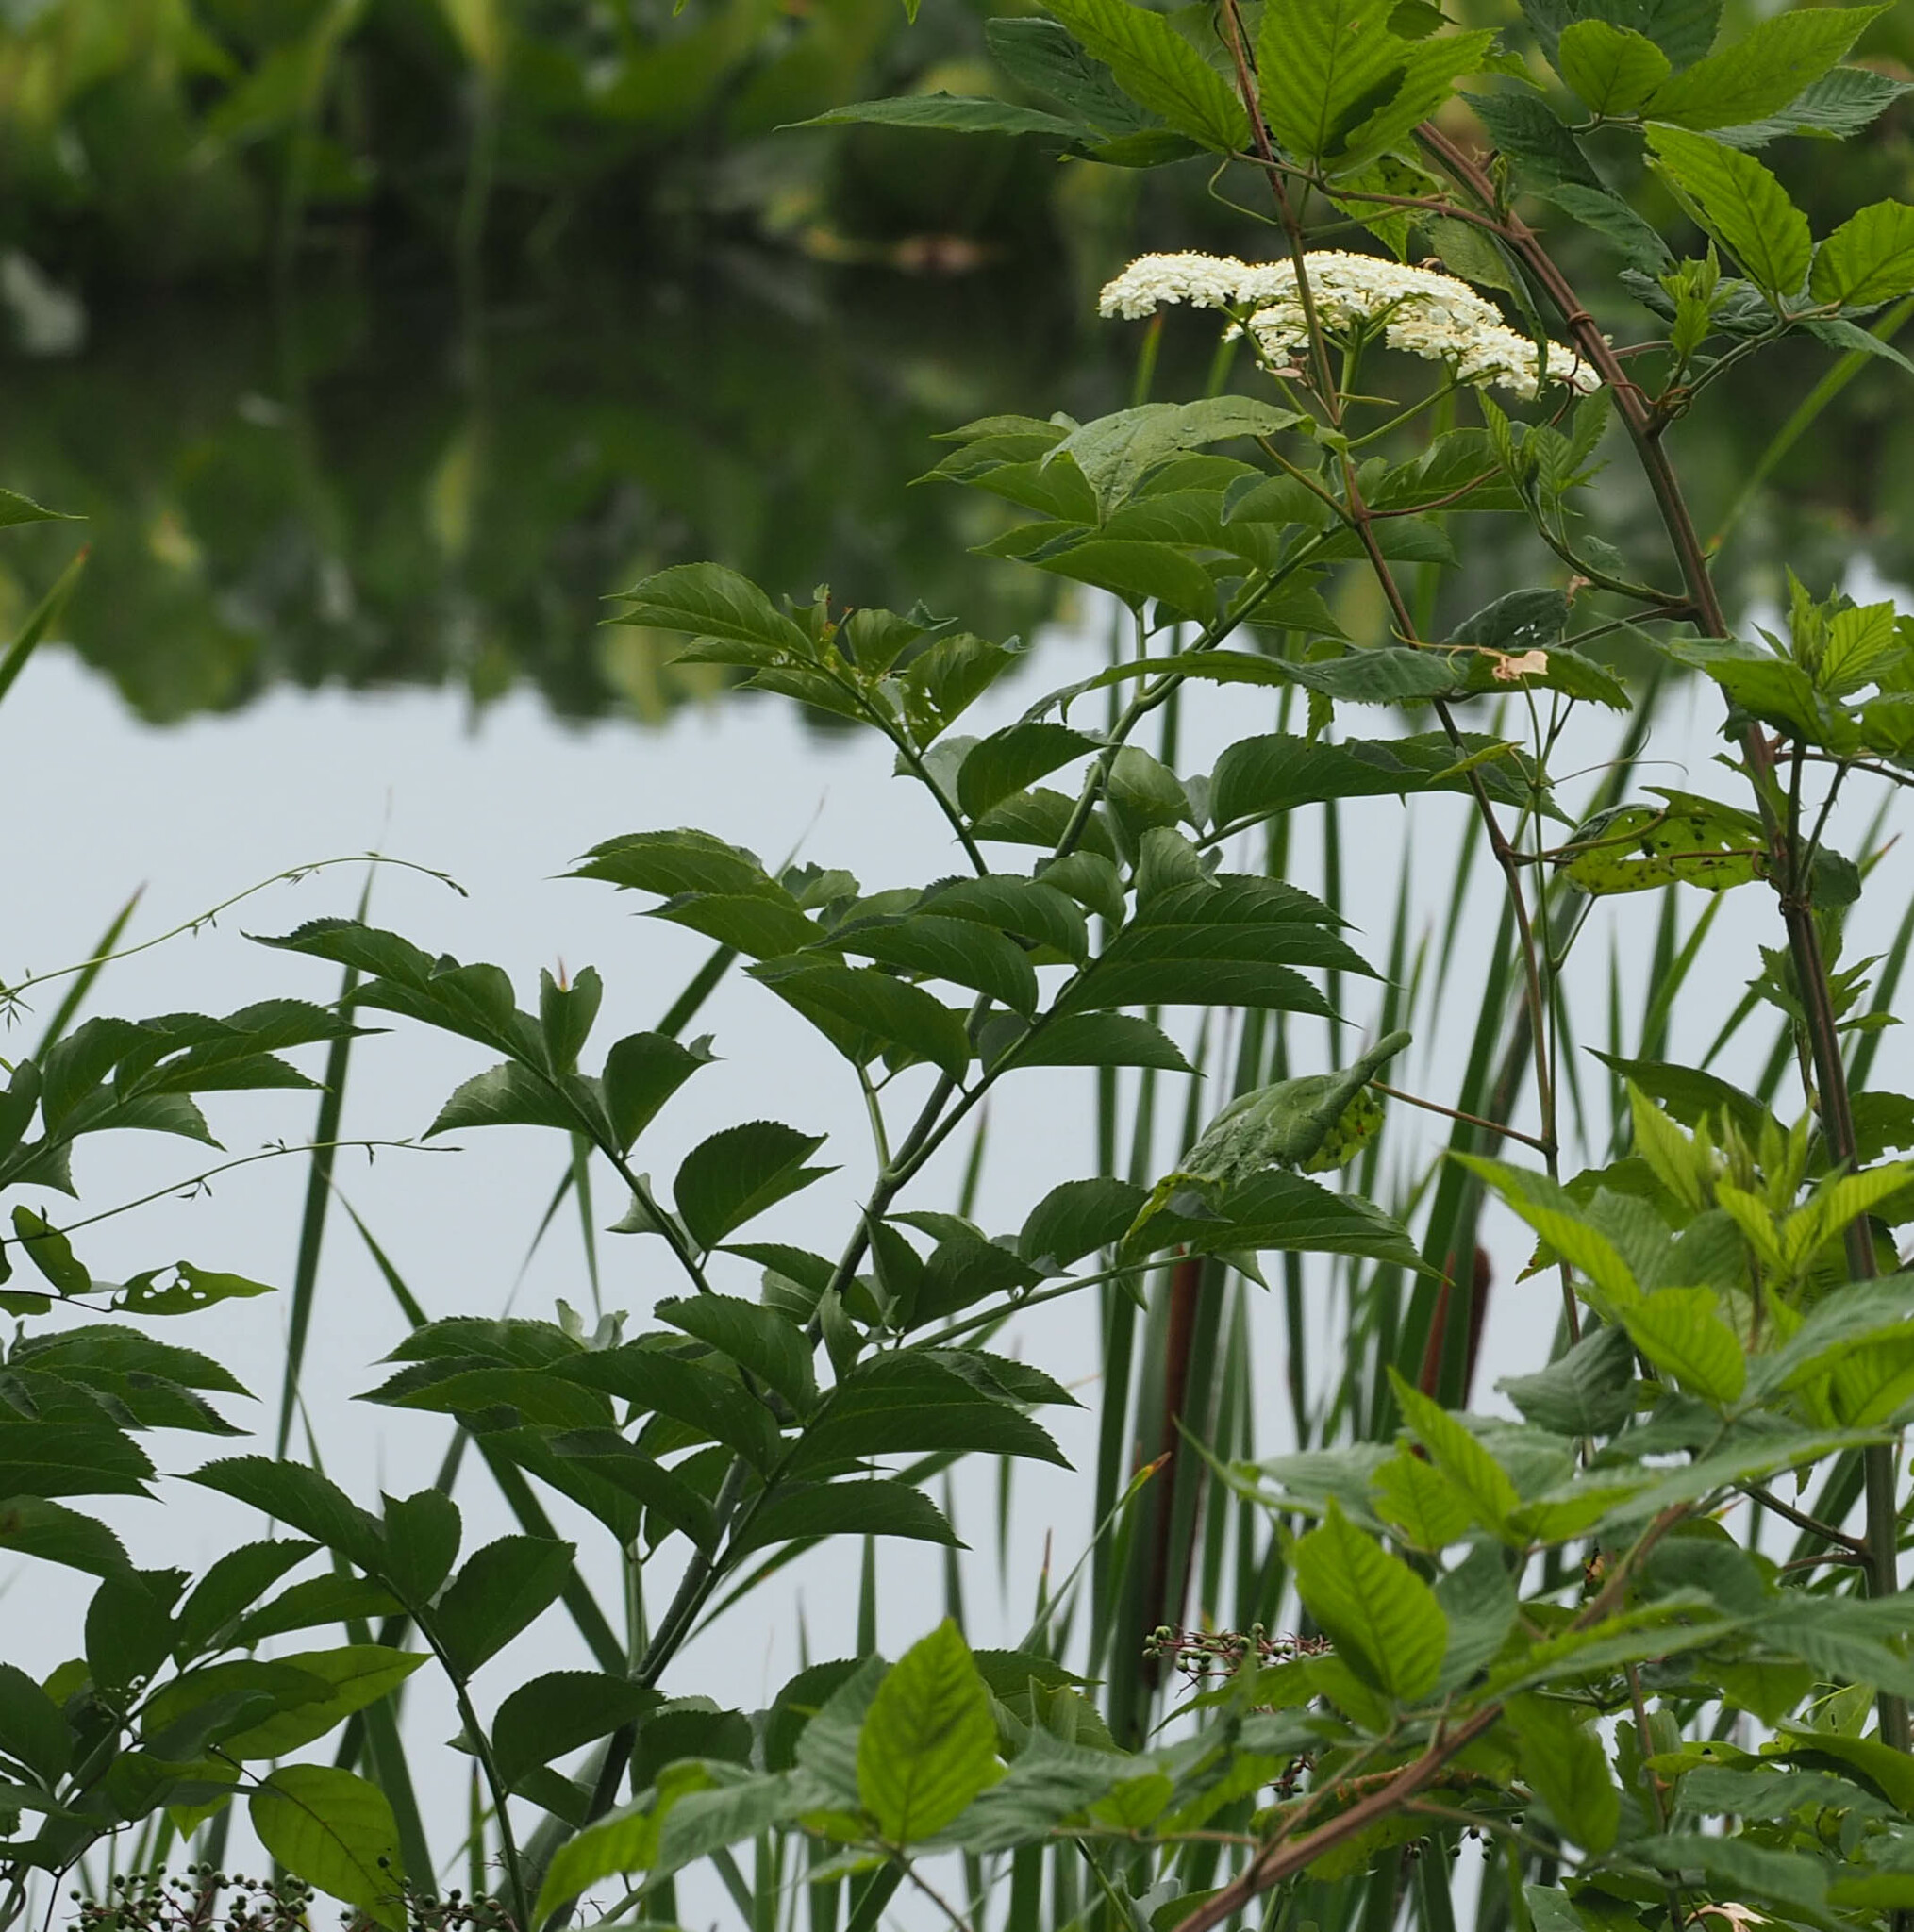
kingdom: Plantae
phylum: Tracheophyta
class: Magnoliopsida
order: Dipsacales
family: Viburnaceae
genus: Sambucus
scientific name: Sambucus canadensis
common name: American elder
